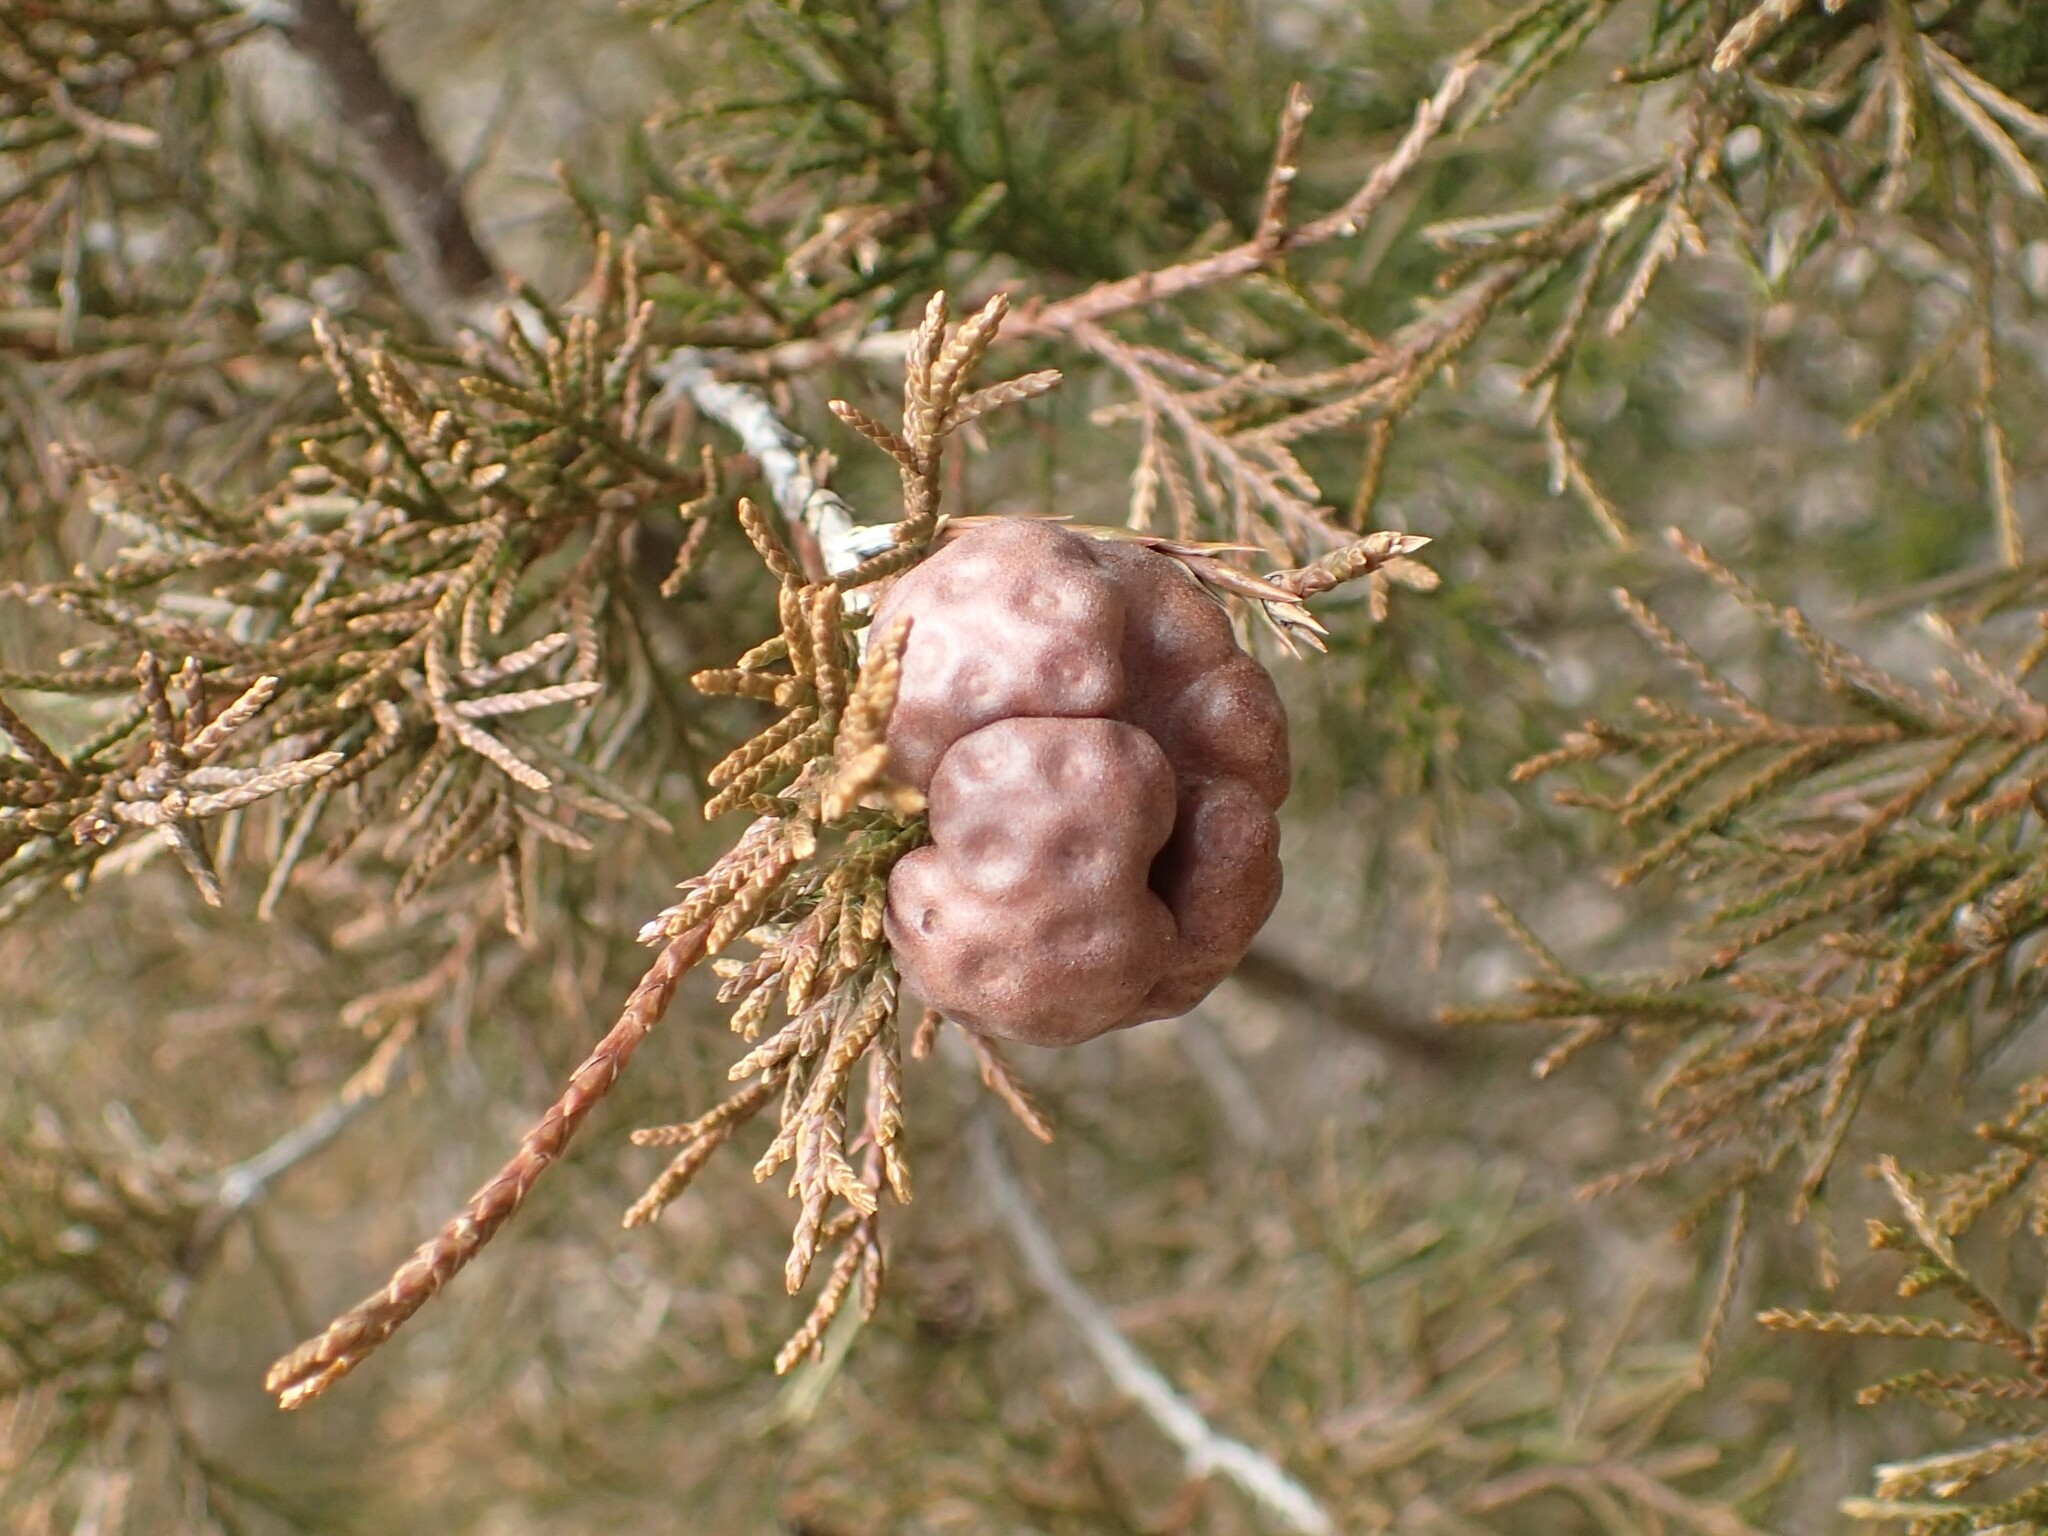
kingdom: Fungi
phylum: Basidiomycota
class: Pucciniomycetes
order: Pucciniales
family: Gymnosporangiaceae
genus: Gymnosporangium
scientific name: Gymnosporangium juniperi-virginianae
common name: Juniper-apple rust
